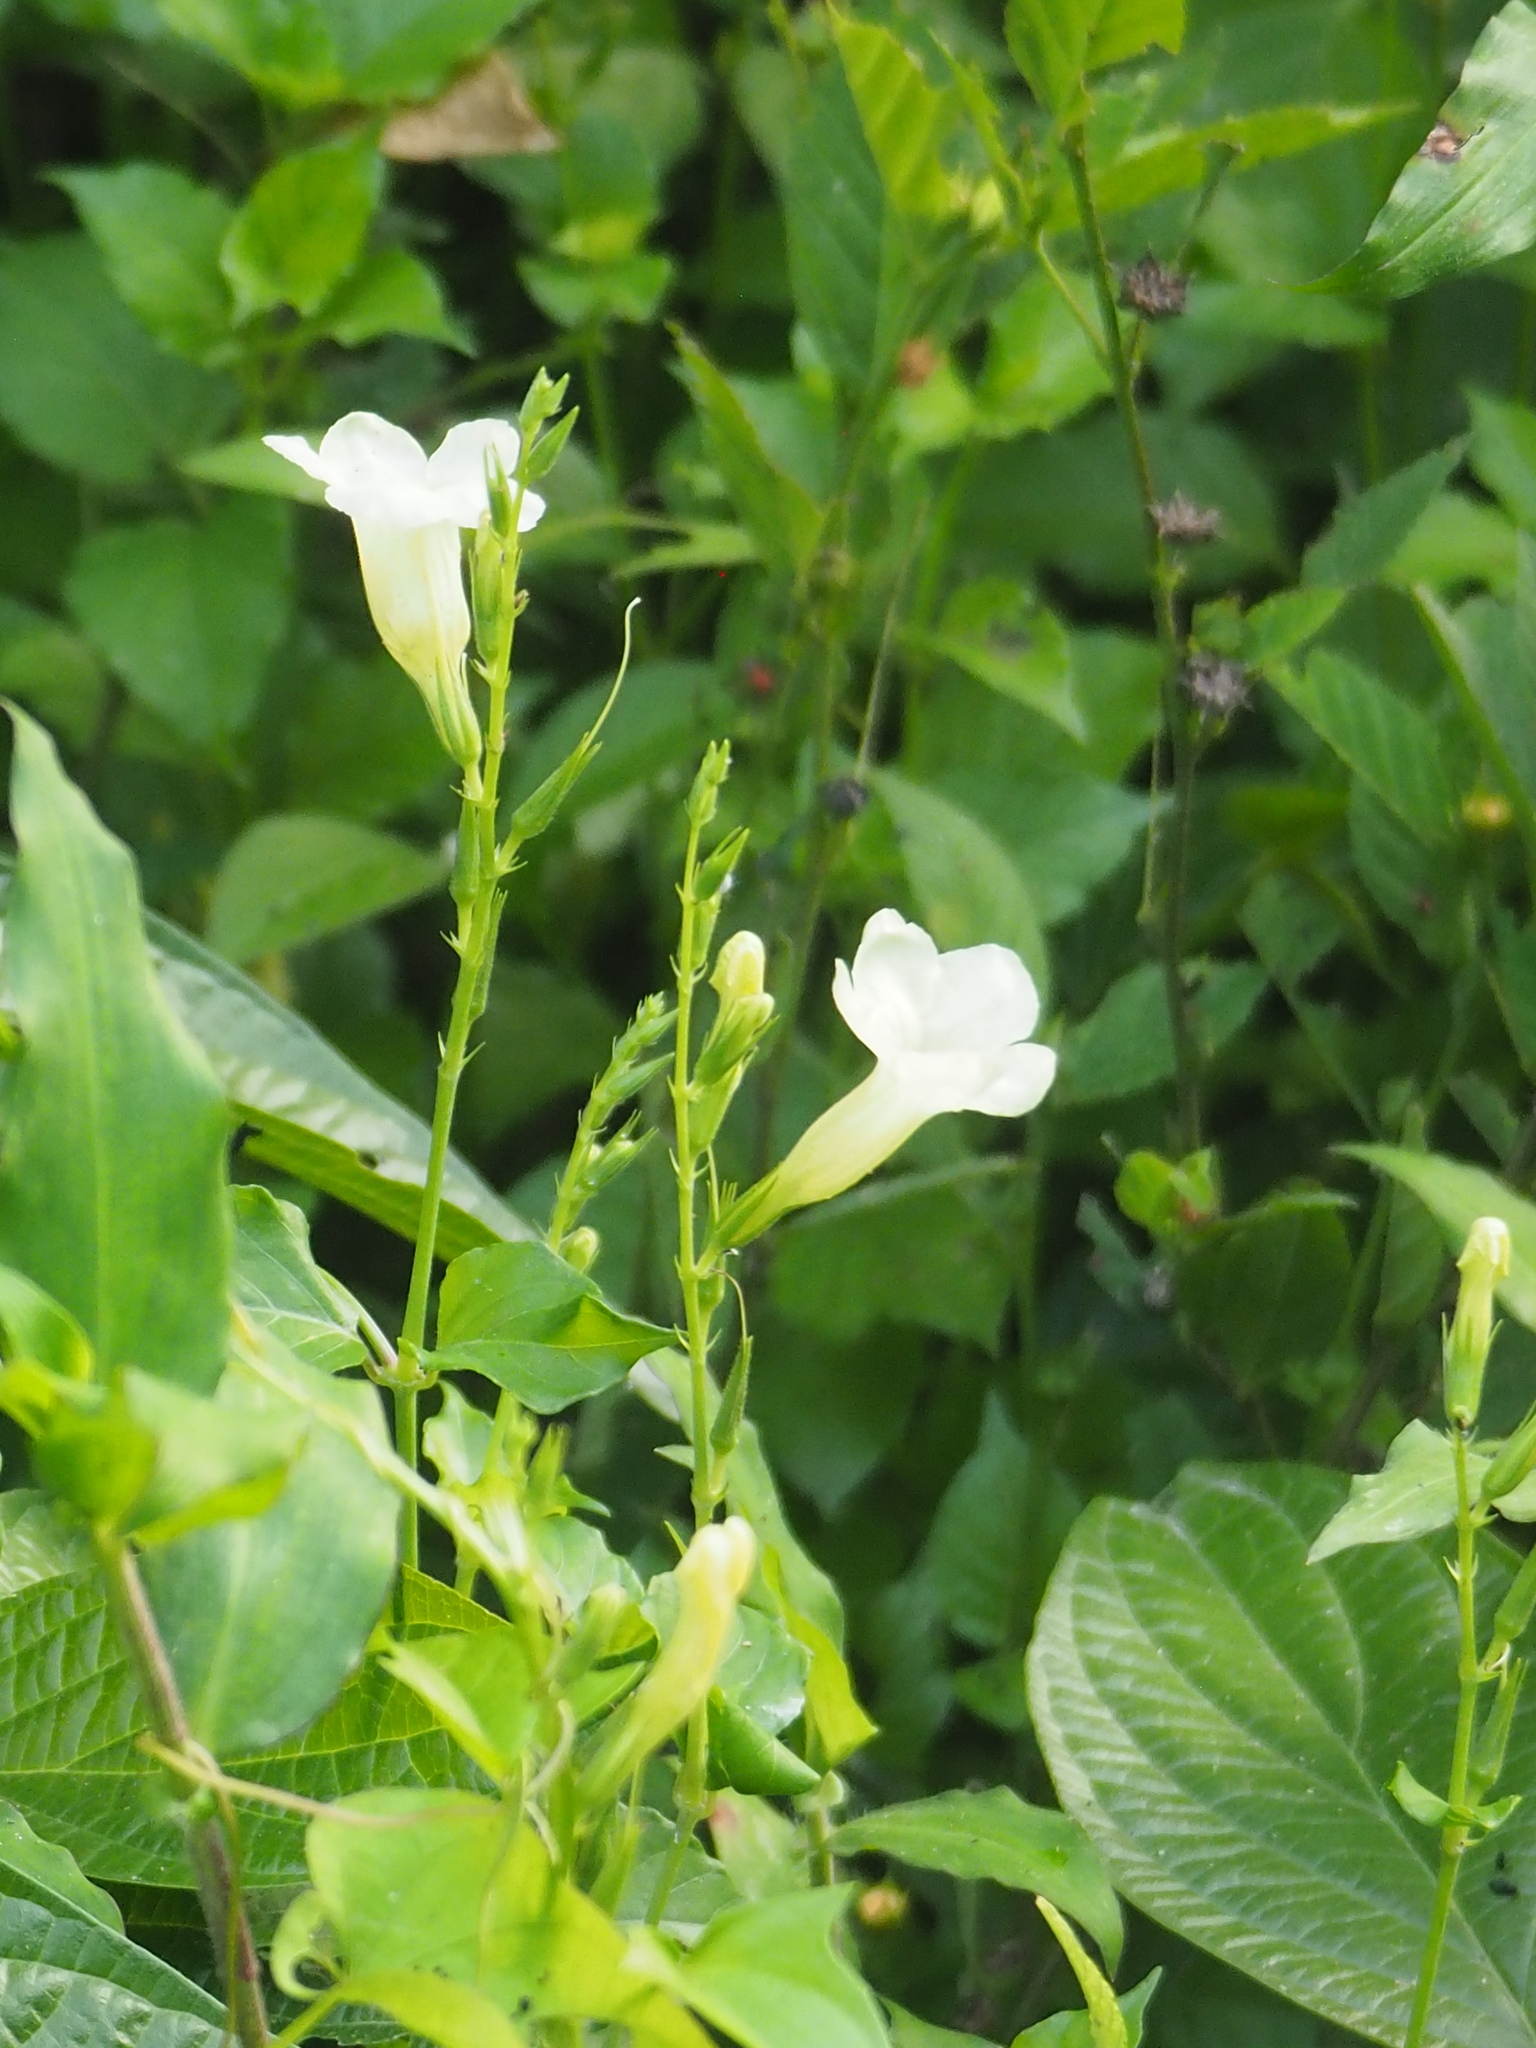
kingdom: Plantae
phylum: Tracheophyta
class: Magnoliopsida
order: Lamiales
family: Acanthaceae
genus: Asystasia
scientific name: Asystasia gangetica
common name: Chinese violet
